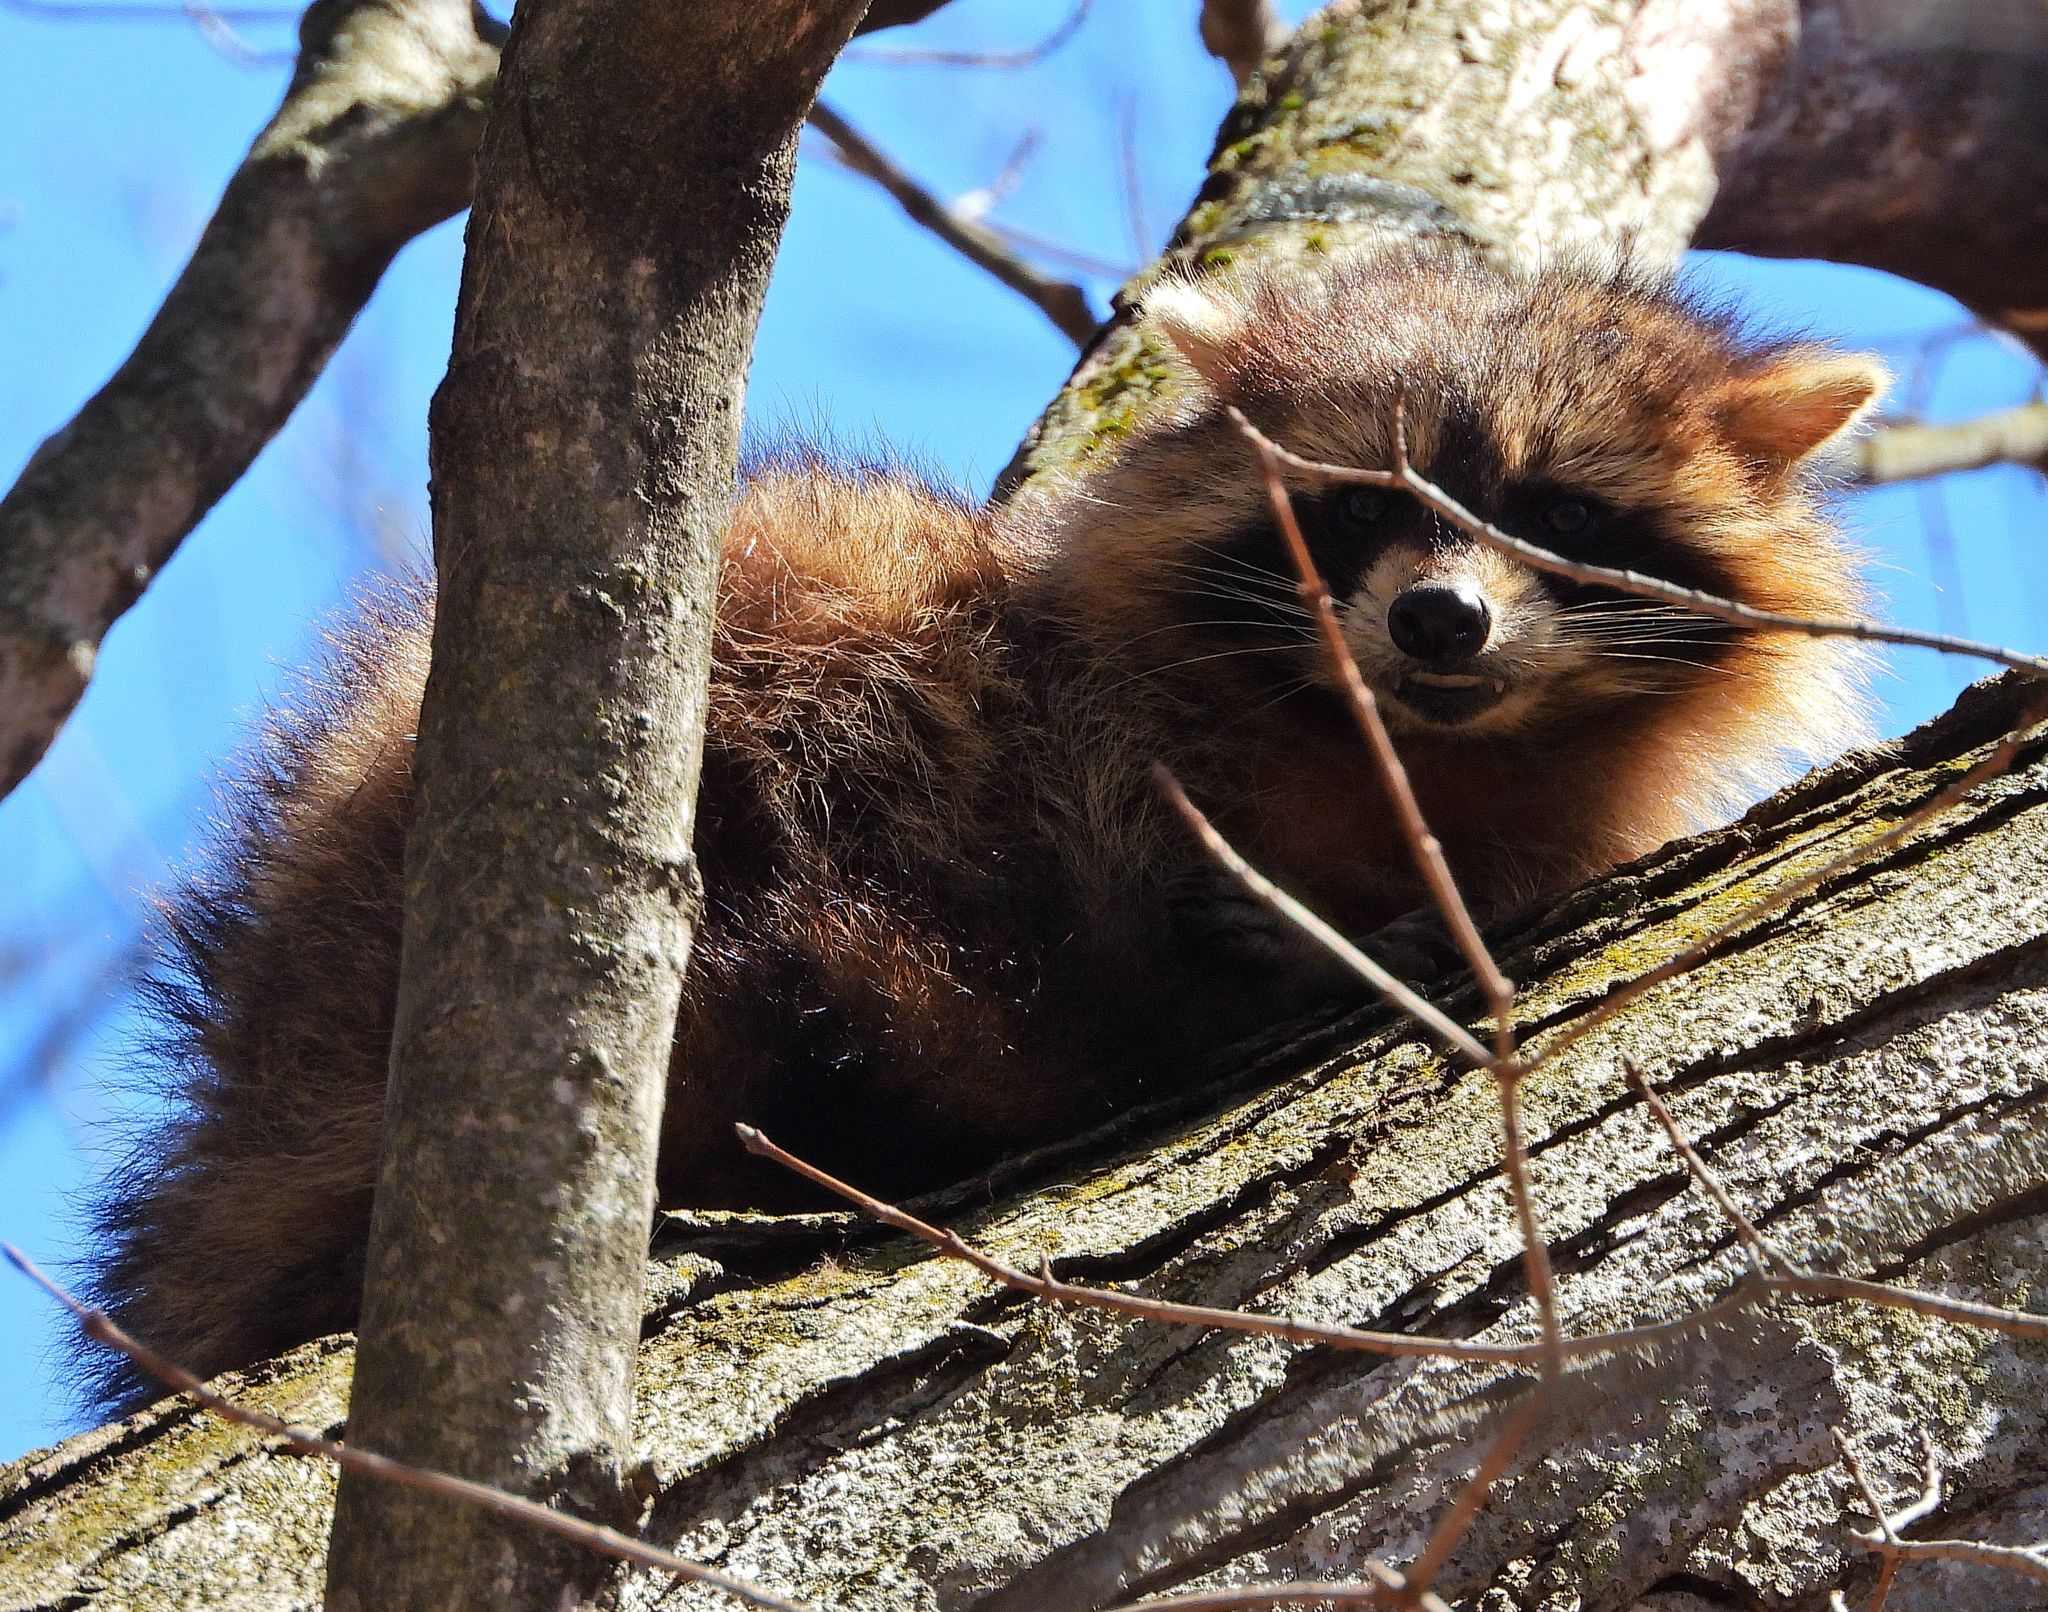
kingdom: Animalia
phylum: Chordata
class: Mammalia
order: Carnivora
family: Procyonidae
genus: Procyon
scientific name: Procyon lotor
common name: Raccoon
